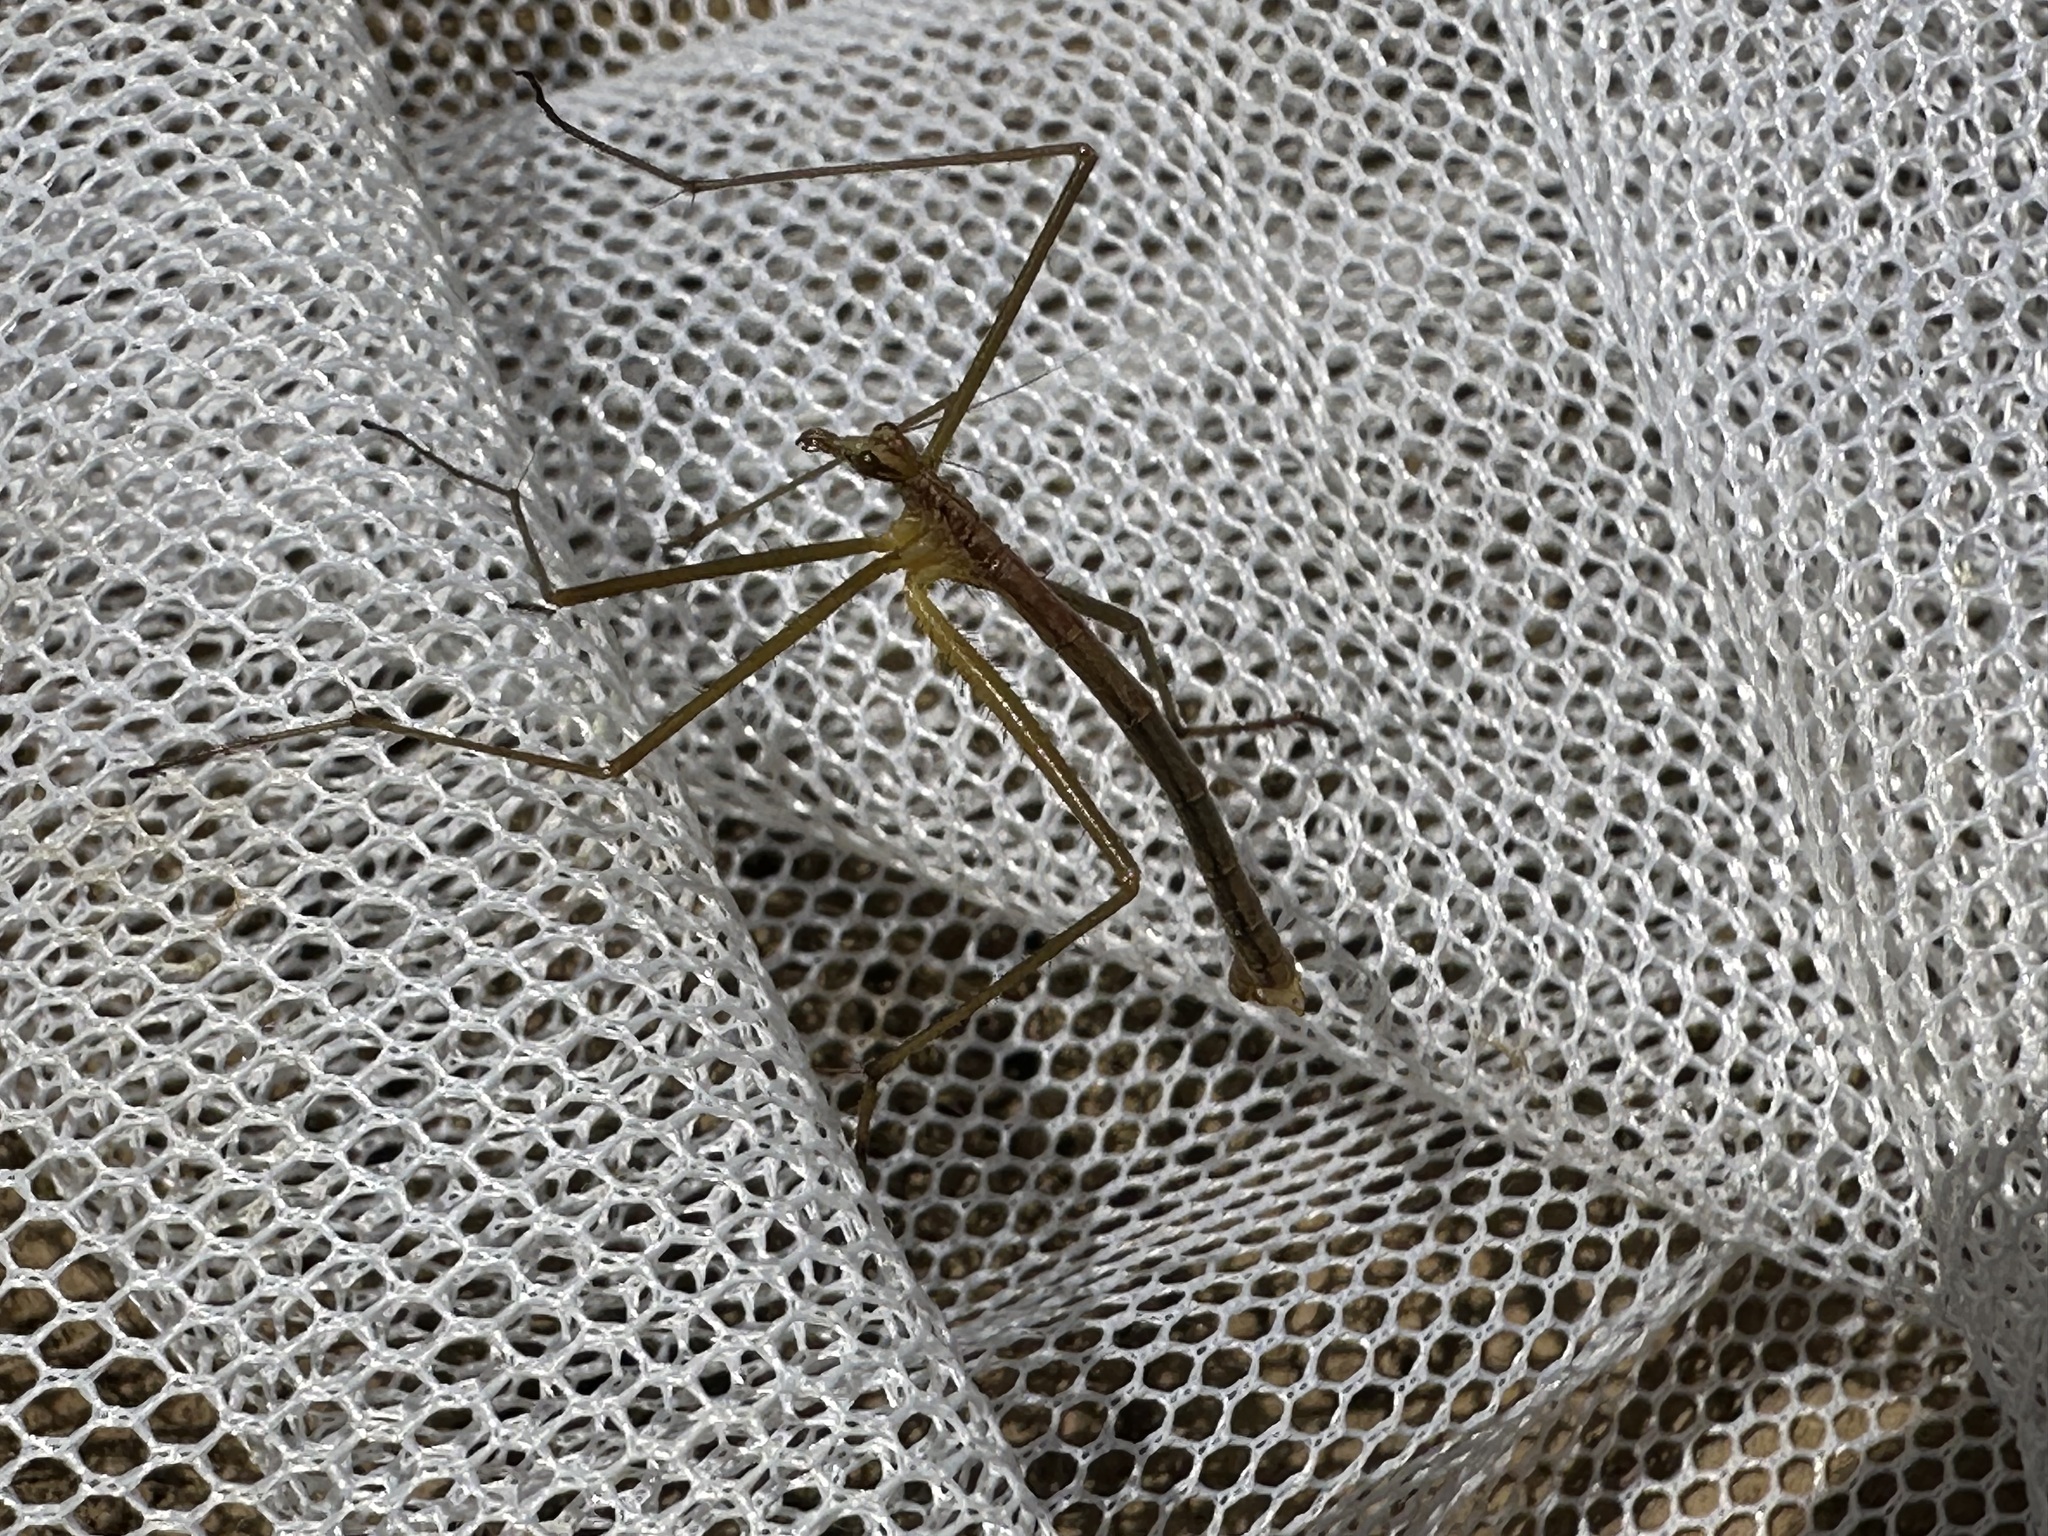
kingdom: Animalia
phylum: Arthropoda
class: Insecta
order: Mecoptera
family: Bittacidae
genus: Apterobittacus
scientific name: Apterobittacus apterus
